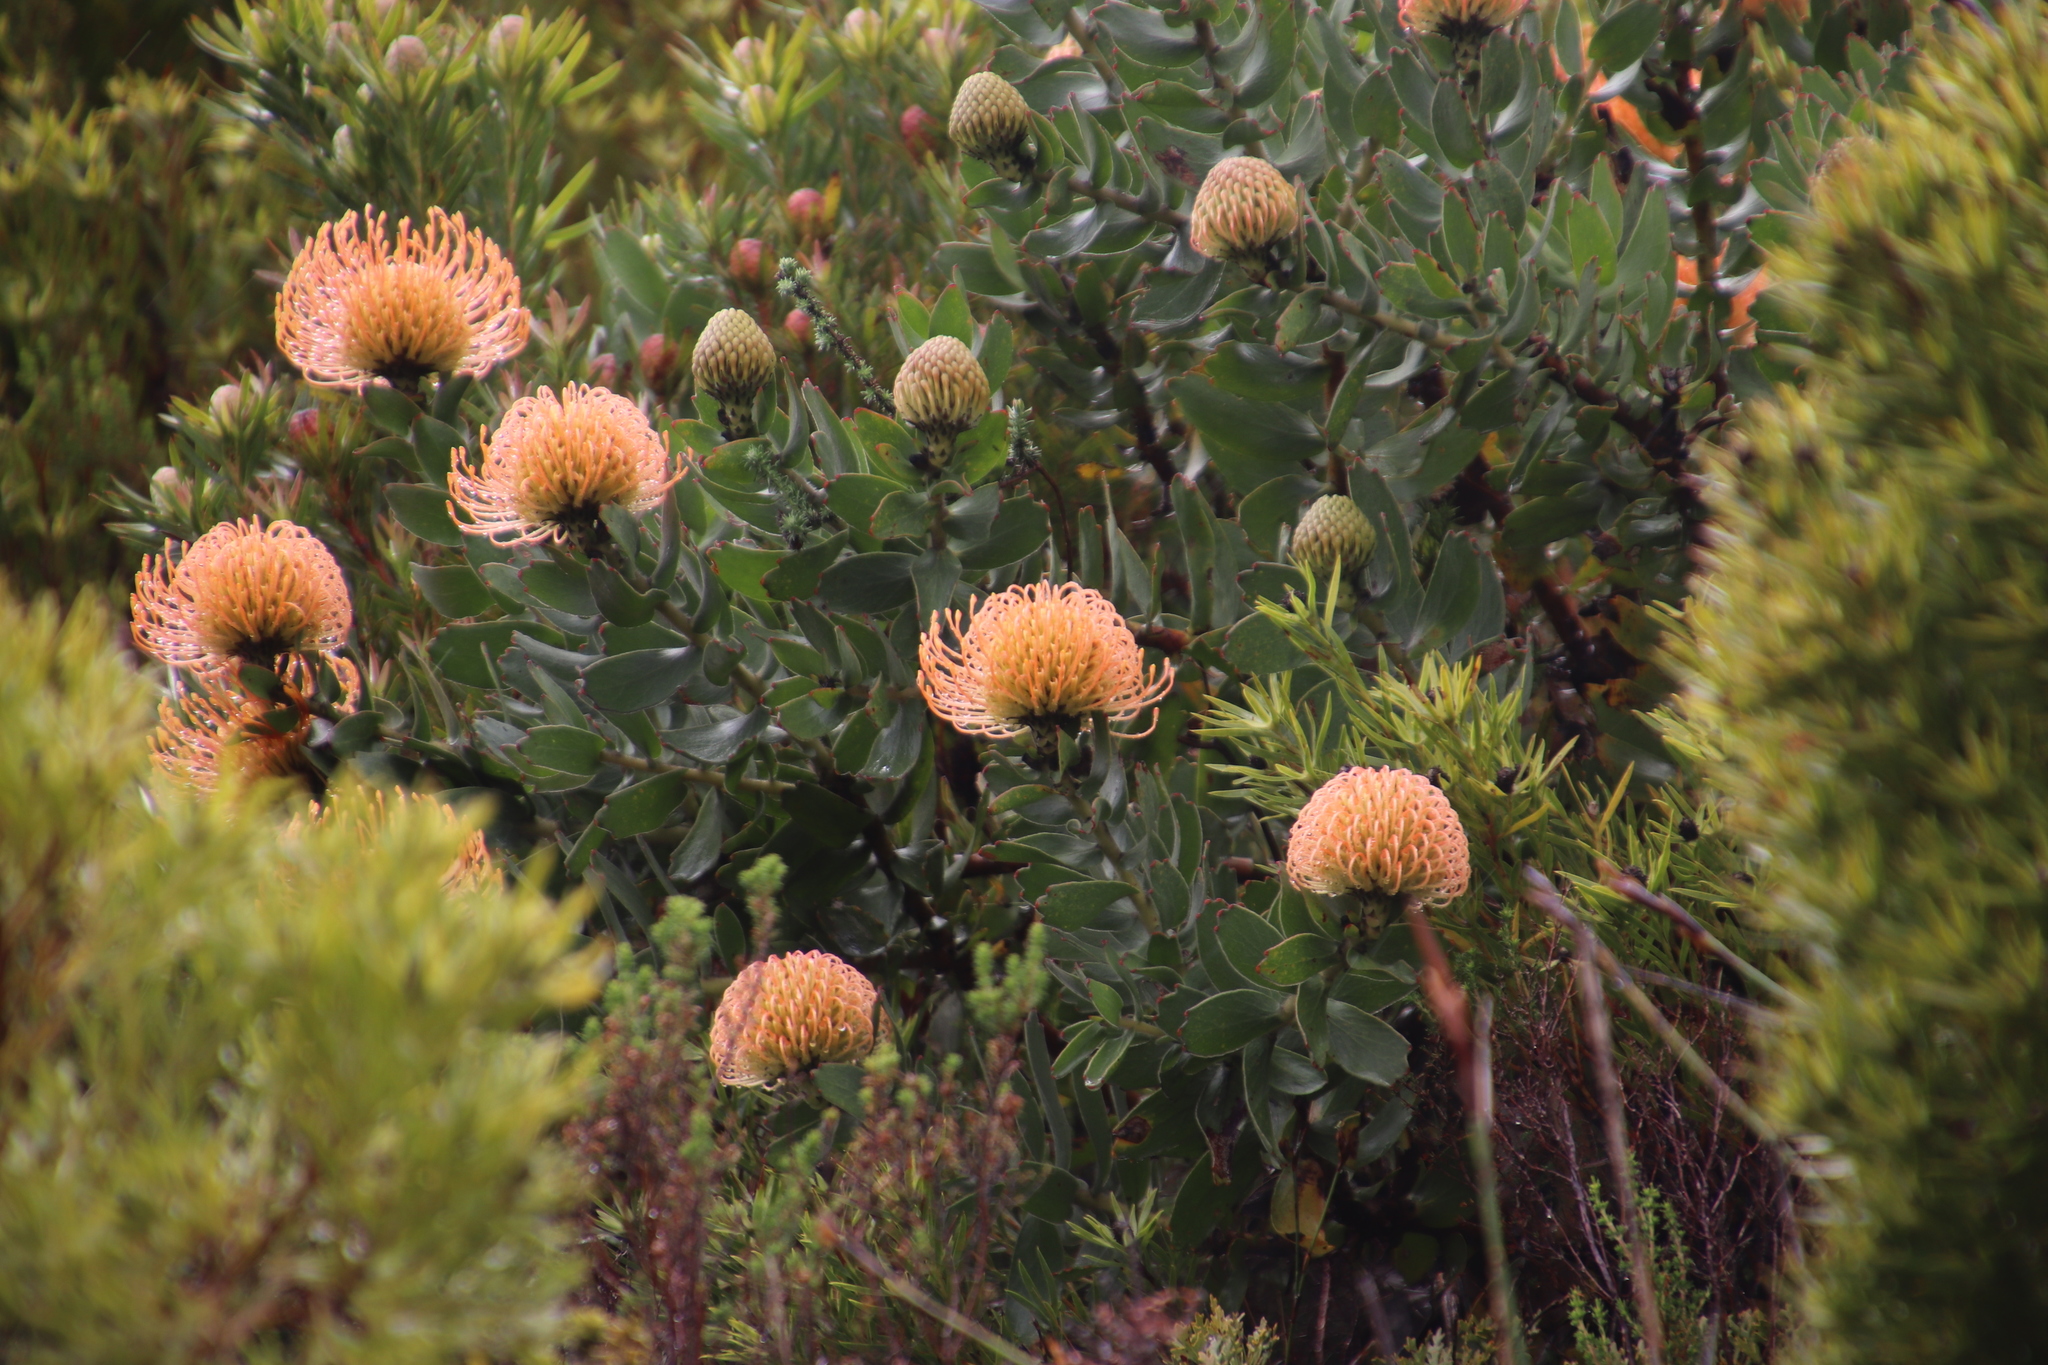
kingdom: Plantae
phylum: Tracheophyta
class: Magnoliopsida
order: Proteales
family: Proteaceae
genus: Leucospermum
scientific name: Leucospermum cordifolium
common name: Red pincushion-protea
